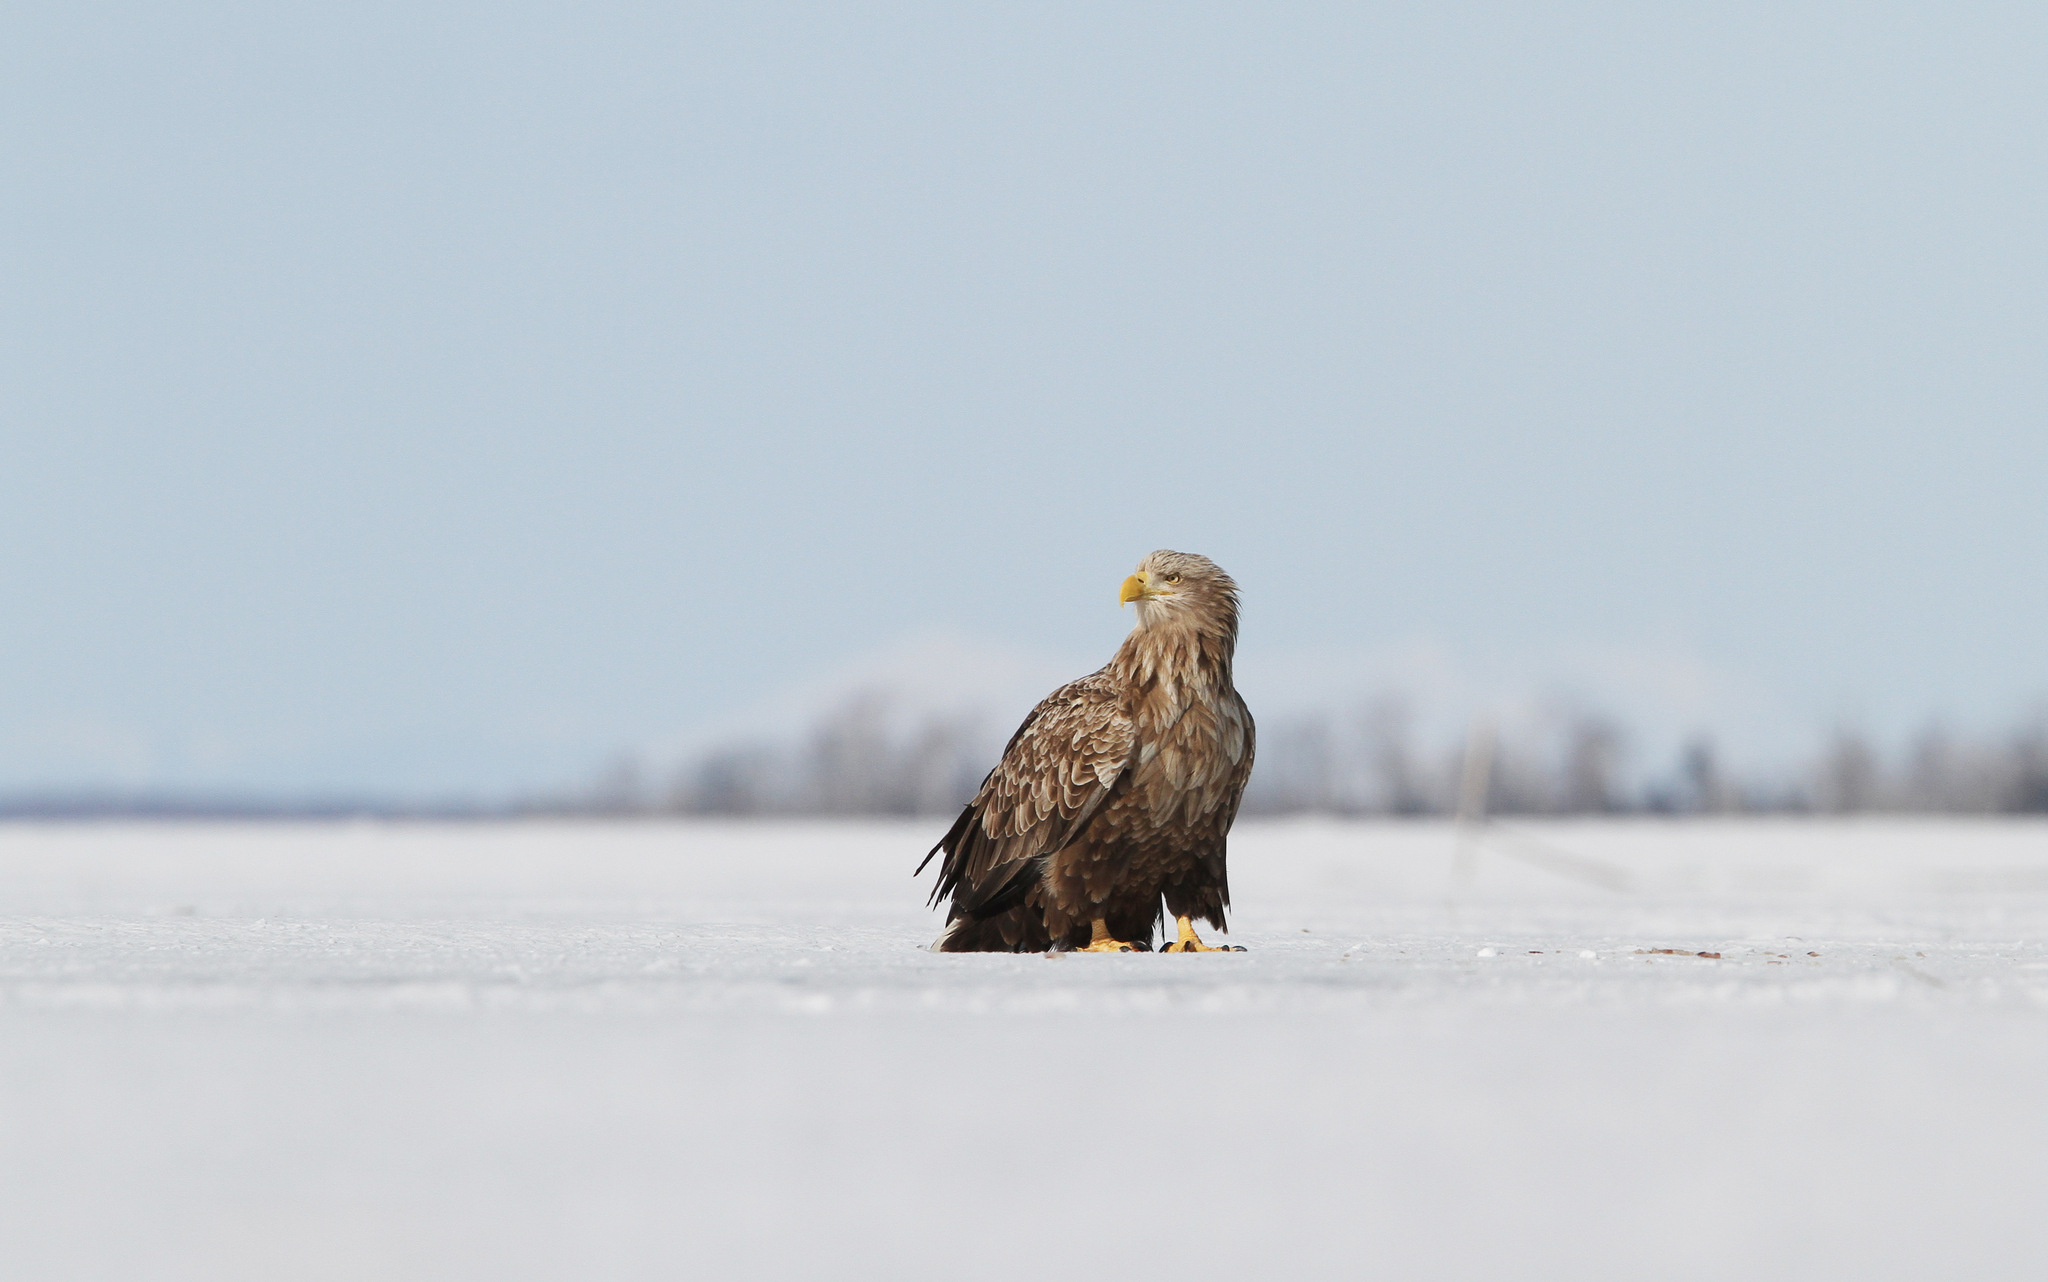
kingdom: Animalia
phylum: Chordata
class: Aves
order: Accipitriformes
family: Accipitridae
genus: Haliaeetus
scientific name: Haliaeetus albicilla
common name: White-tailed eagle
